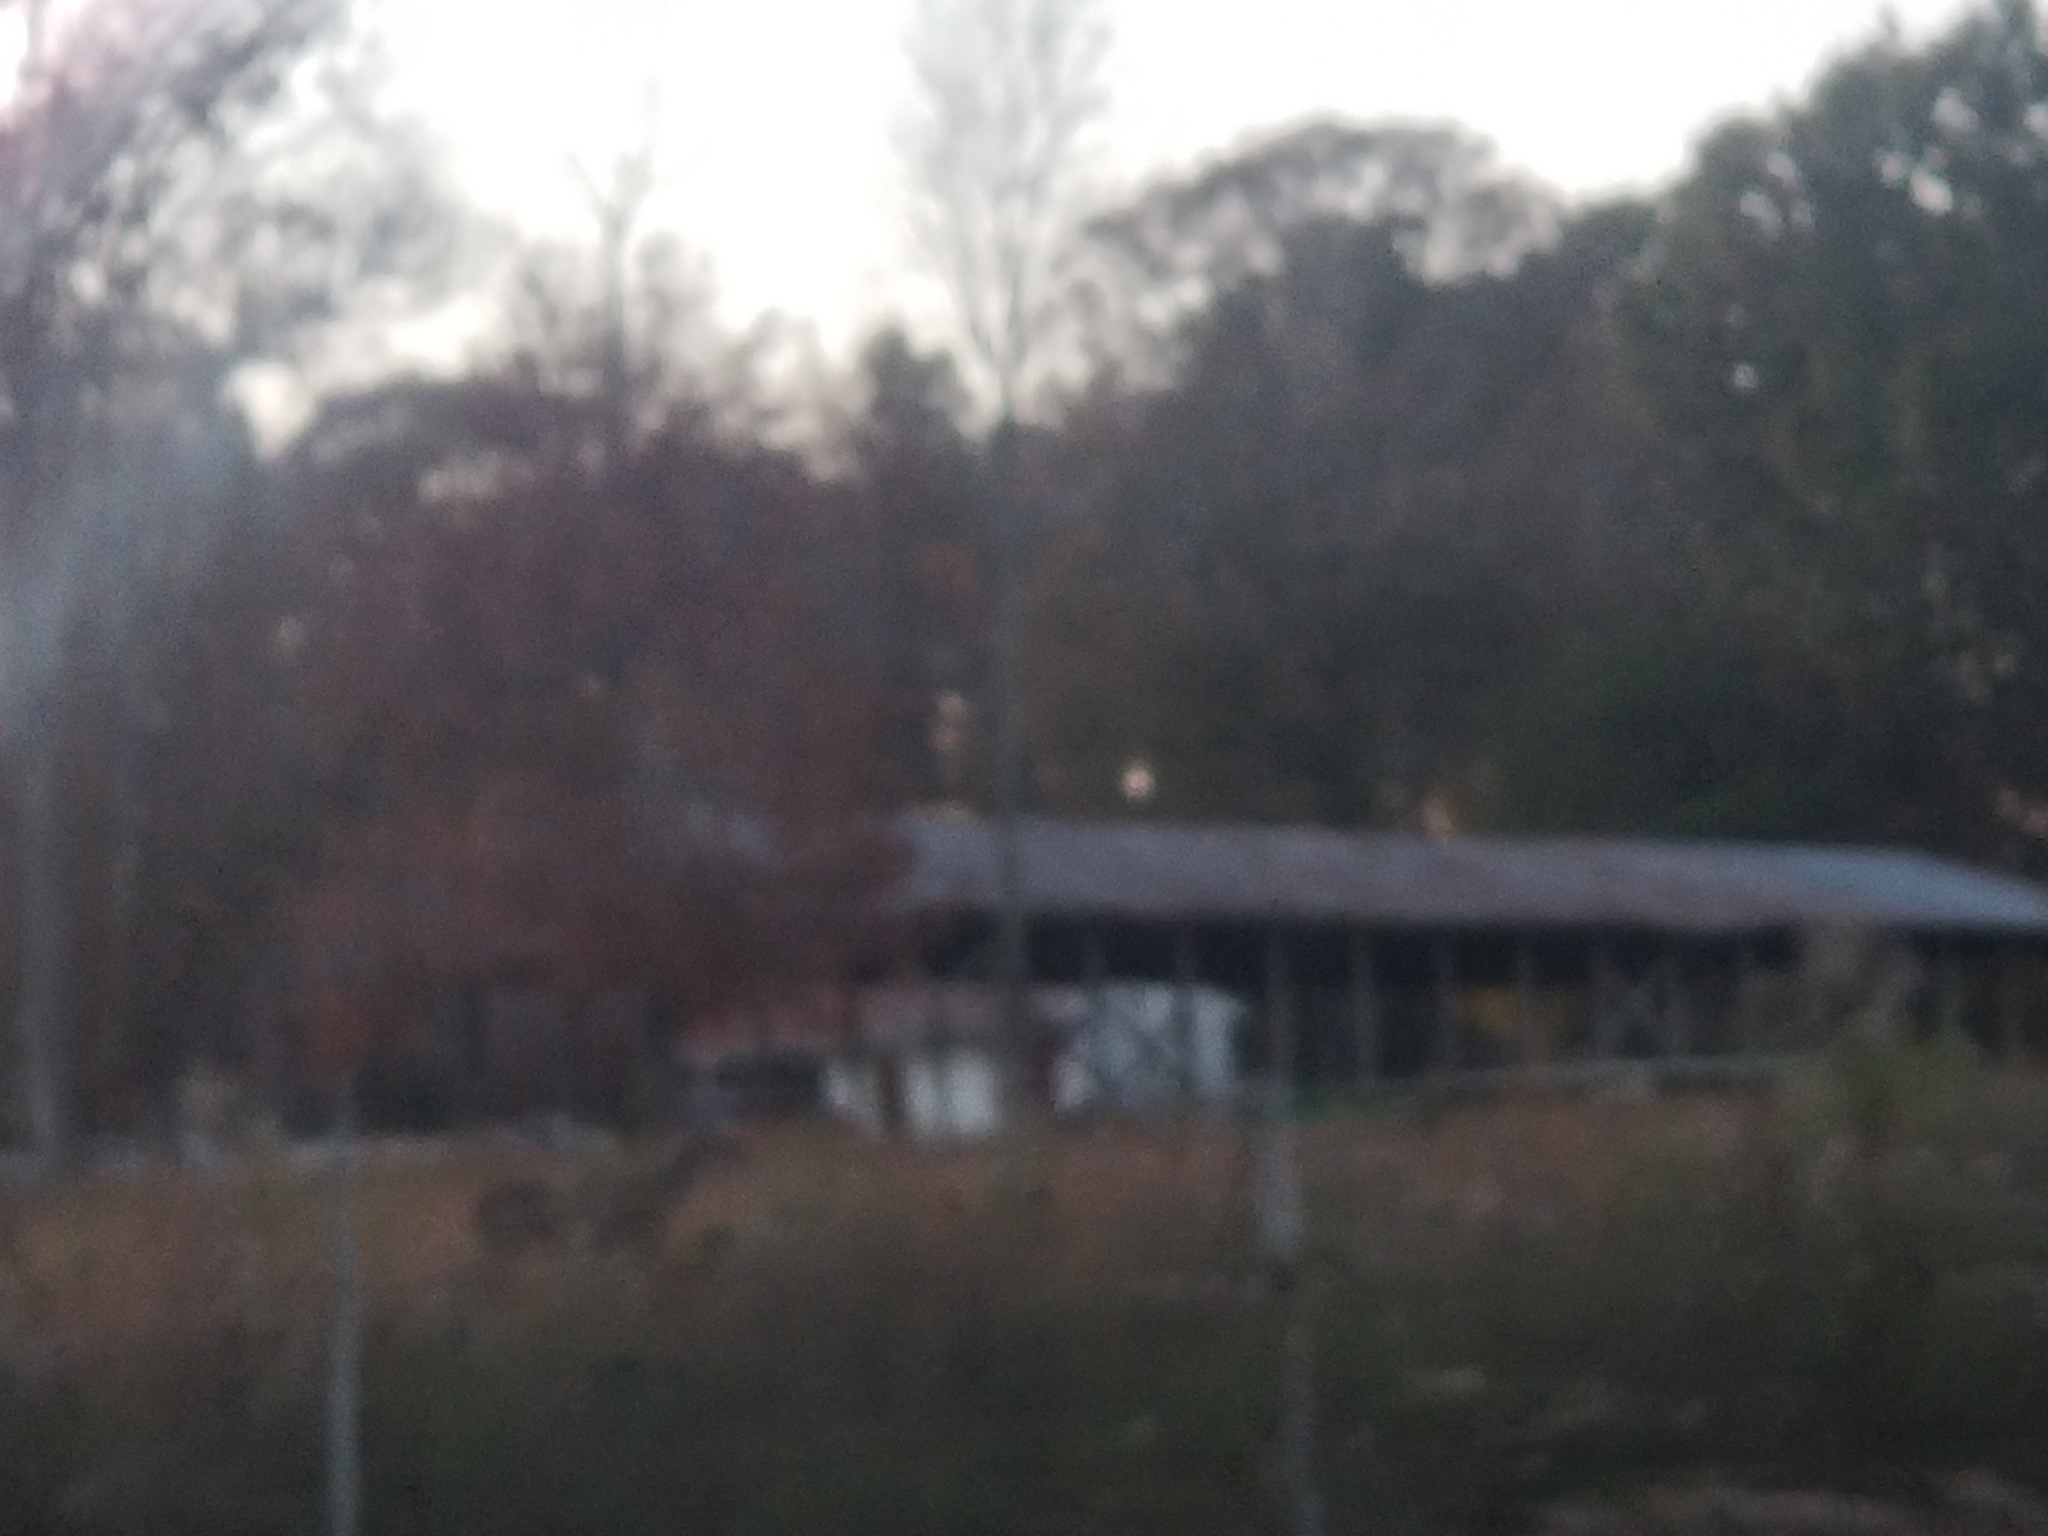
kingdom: Animalia
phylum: Chordata
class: Mammalia
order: Artiodactyla
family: Cervidae
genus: Odocoileus
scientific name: Odocoileus virginianus
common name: White-tailed deer
